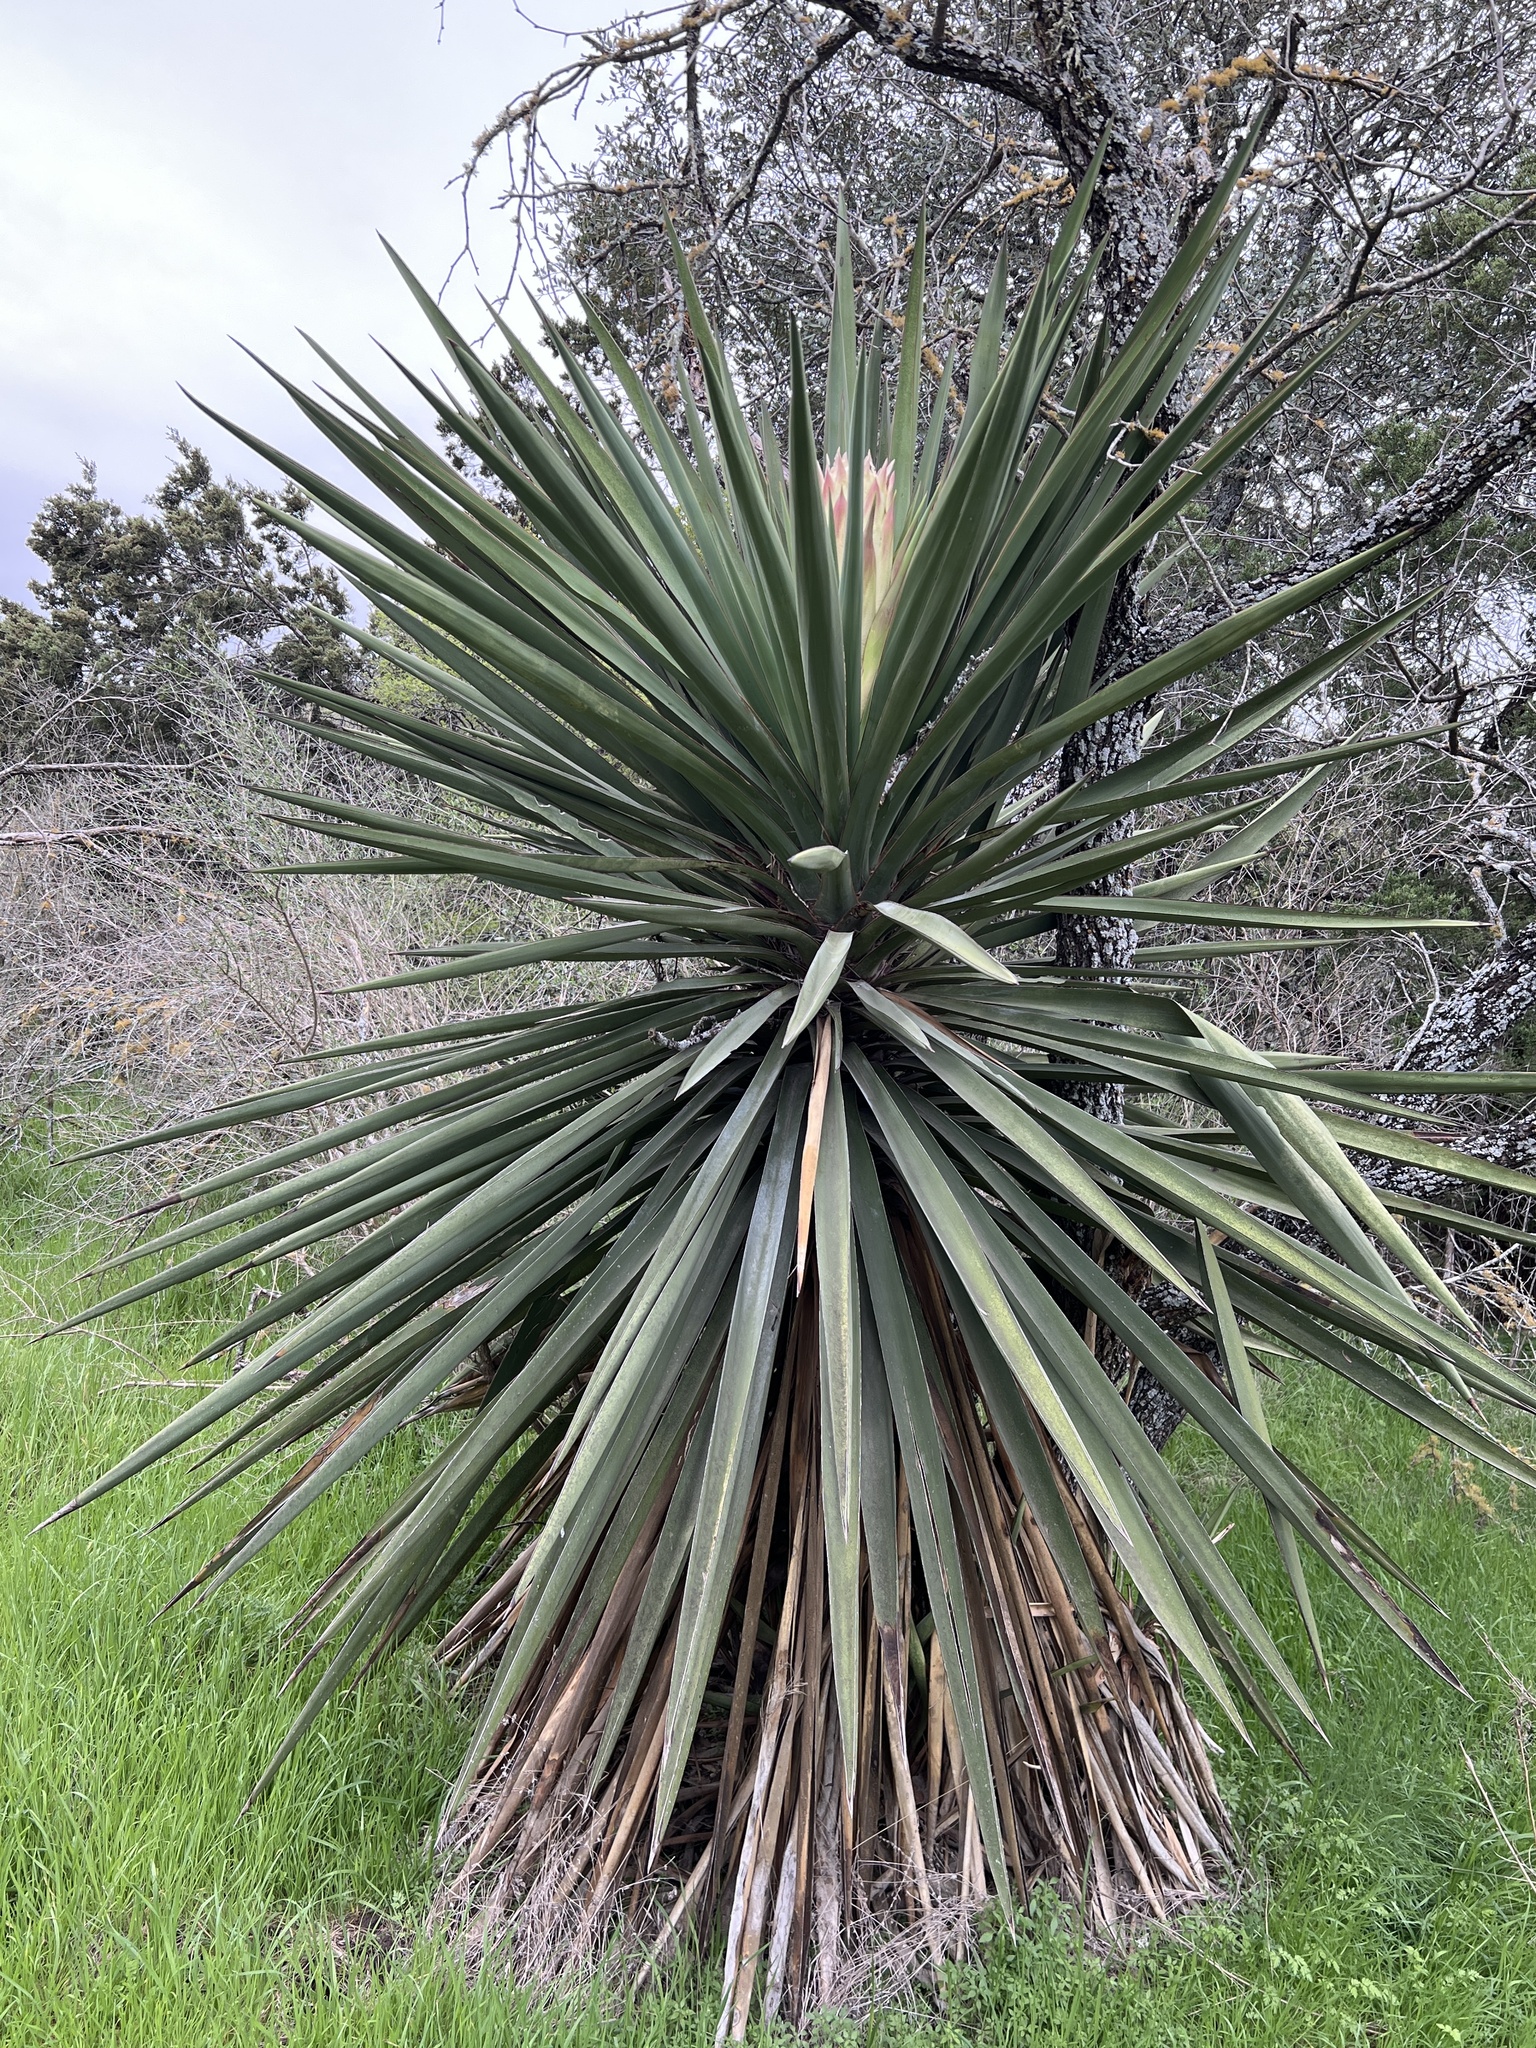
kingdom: Plantae
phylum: Tracheophyta
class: Liliopsida
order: Asparagales
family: Asparagaceae
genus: Yucca
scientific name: Yucca treculiana
